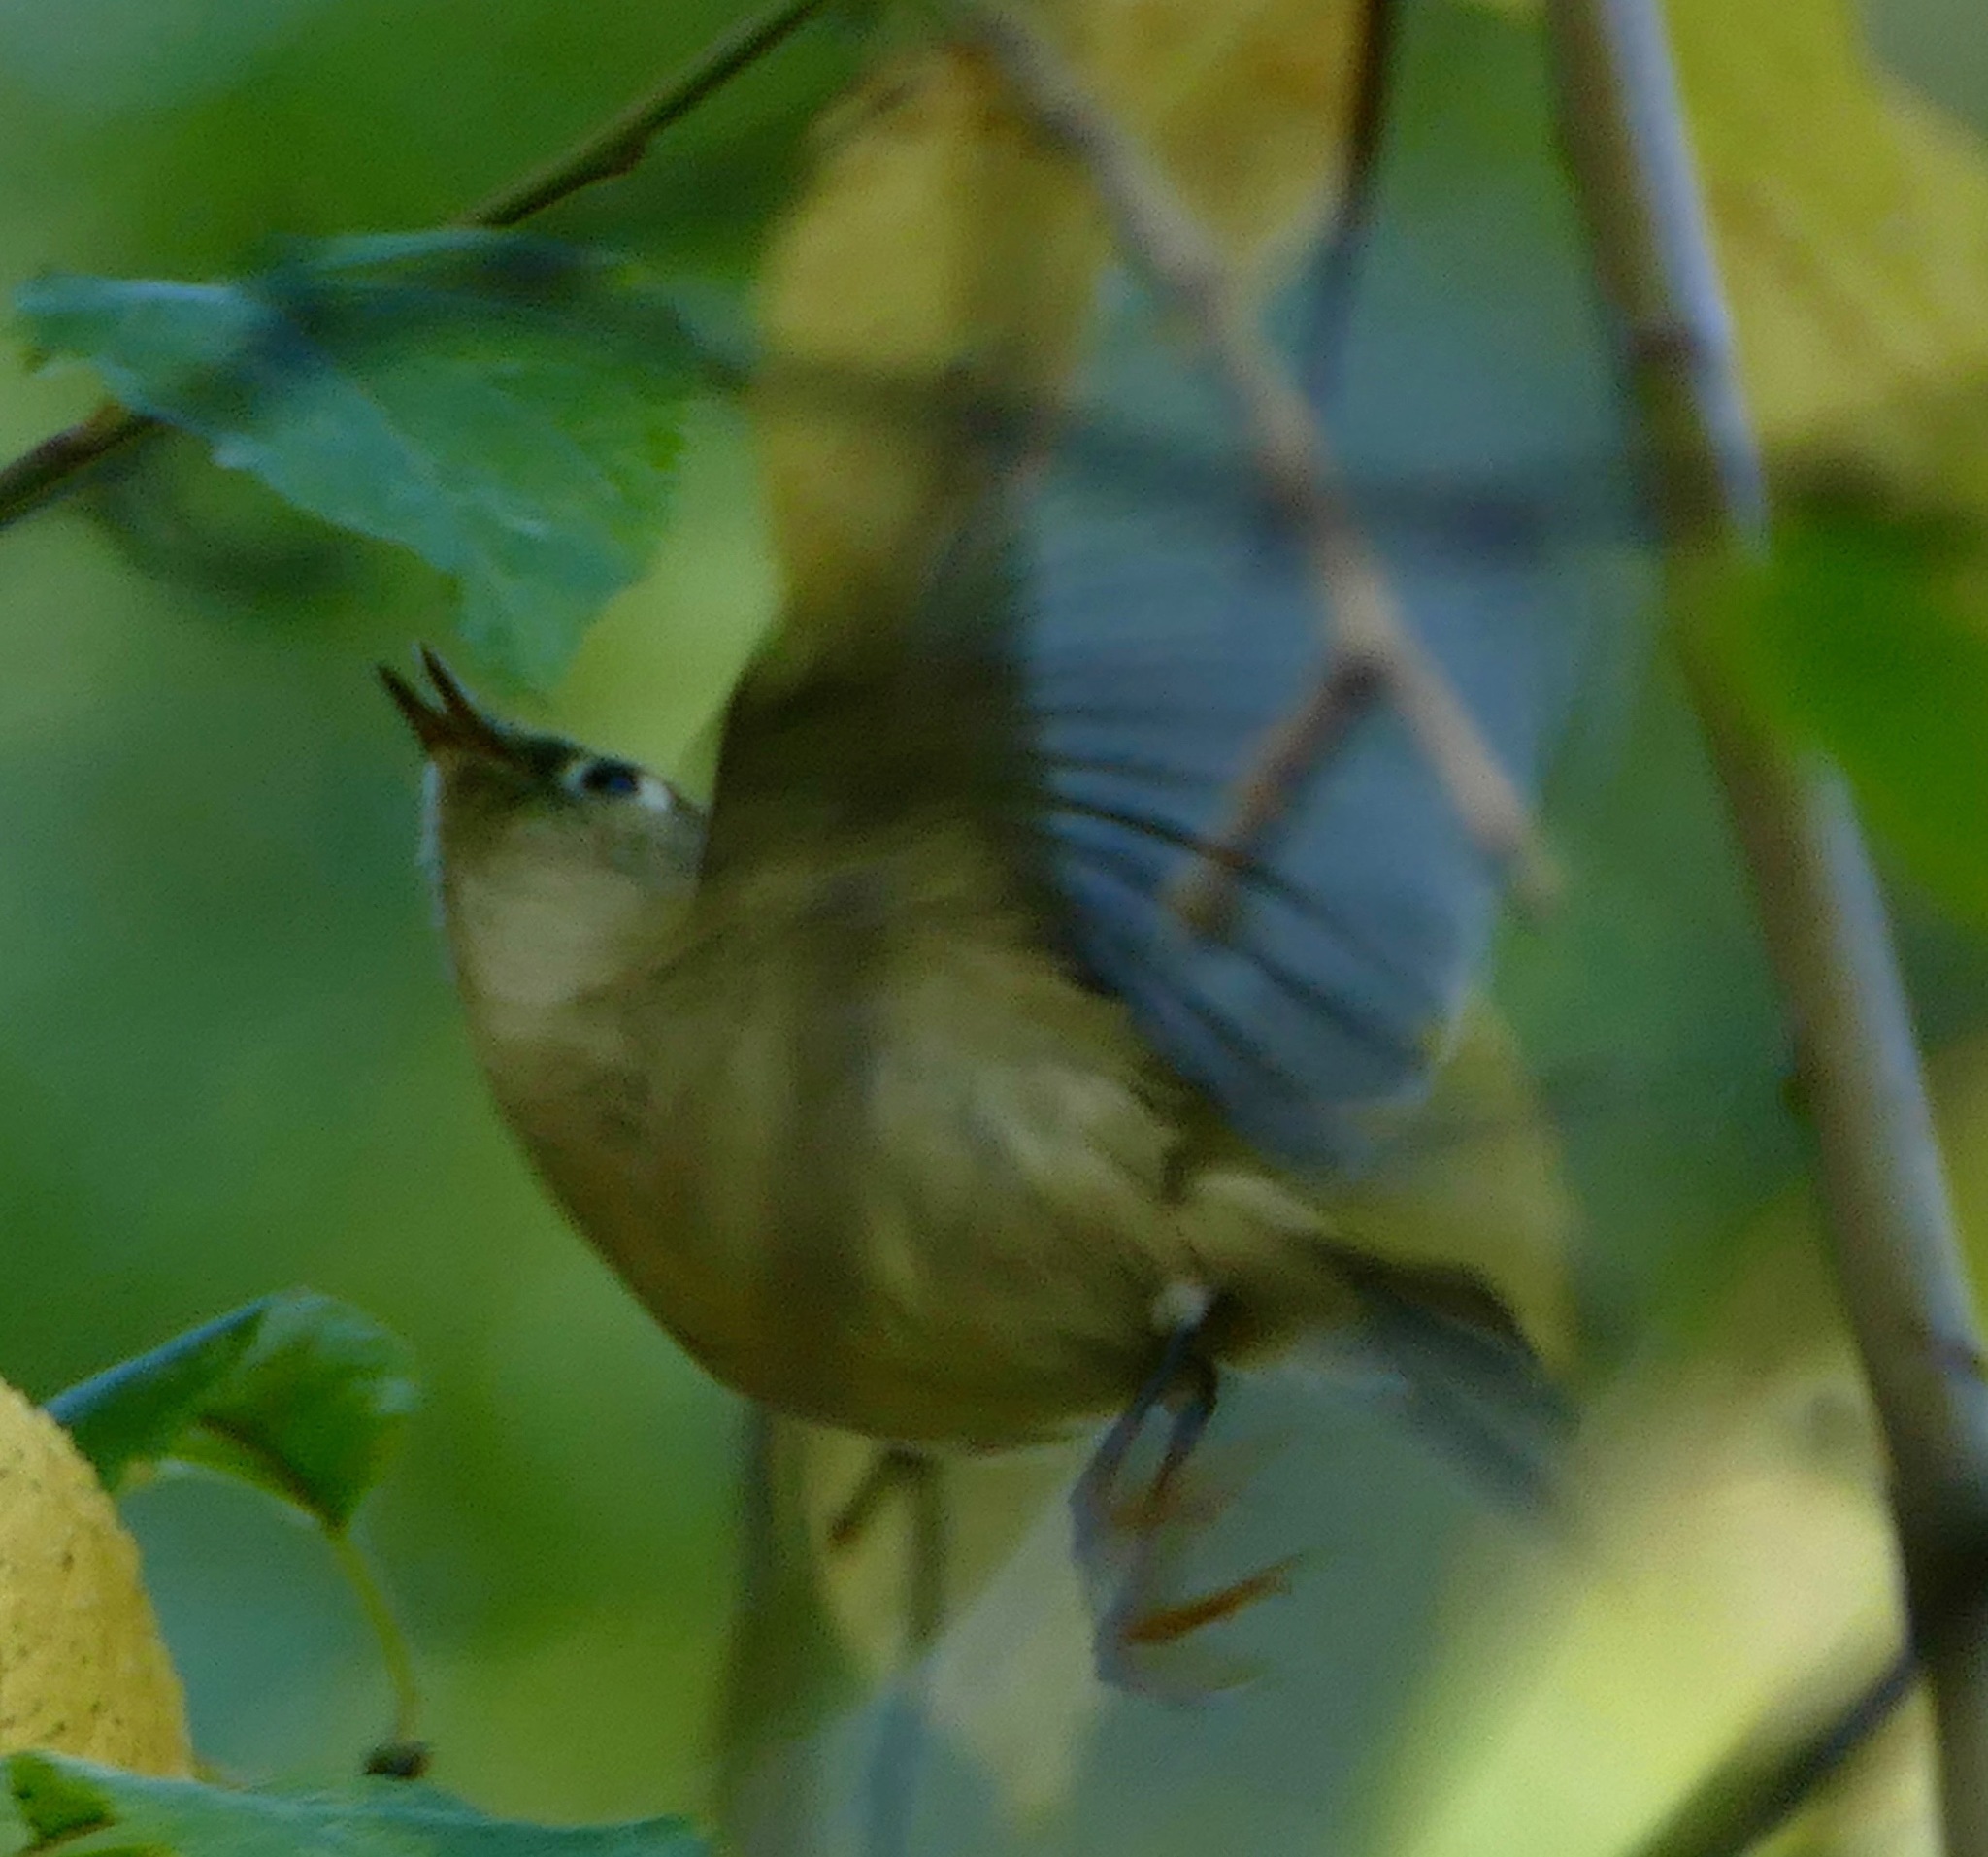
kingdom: Animalia
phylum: Chordata
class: Aves
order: Passeriformes
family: Regulidae
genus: Regulus
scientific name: Regulus calendula
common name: Ruby-crowned kinglet
